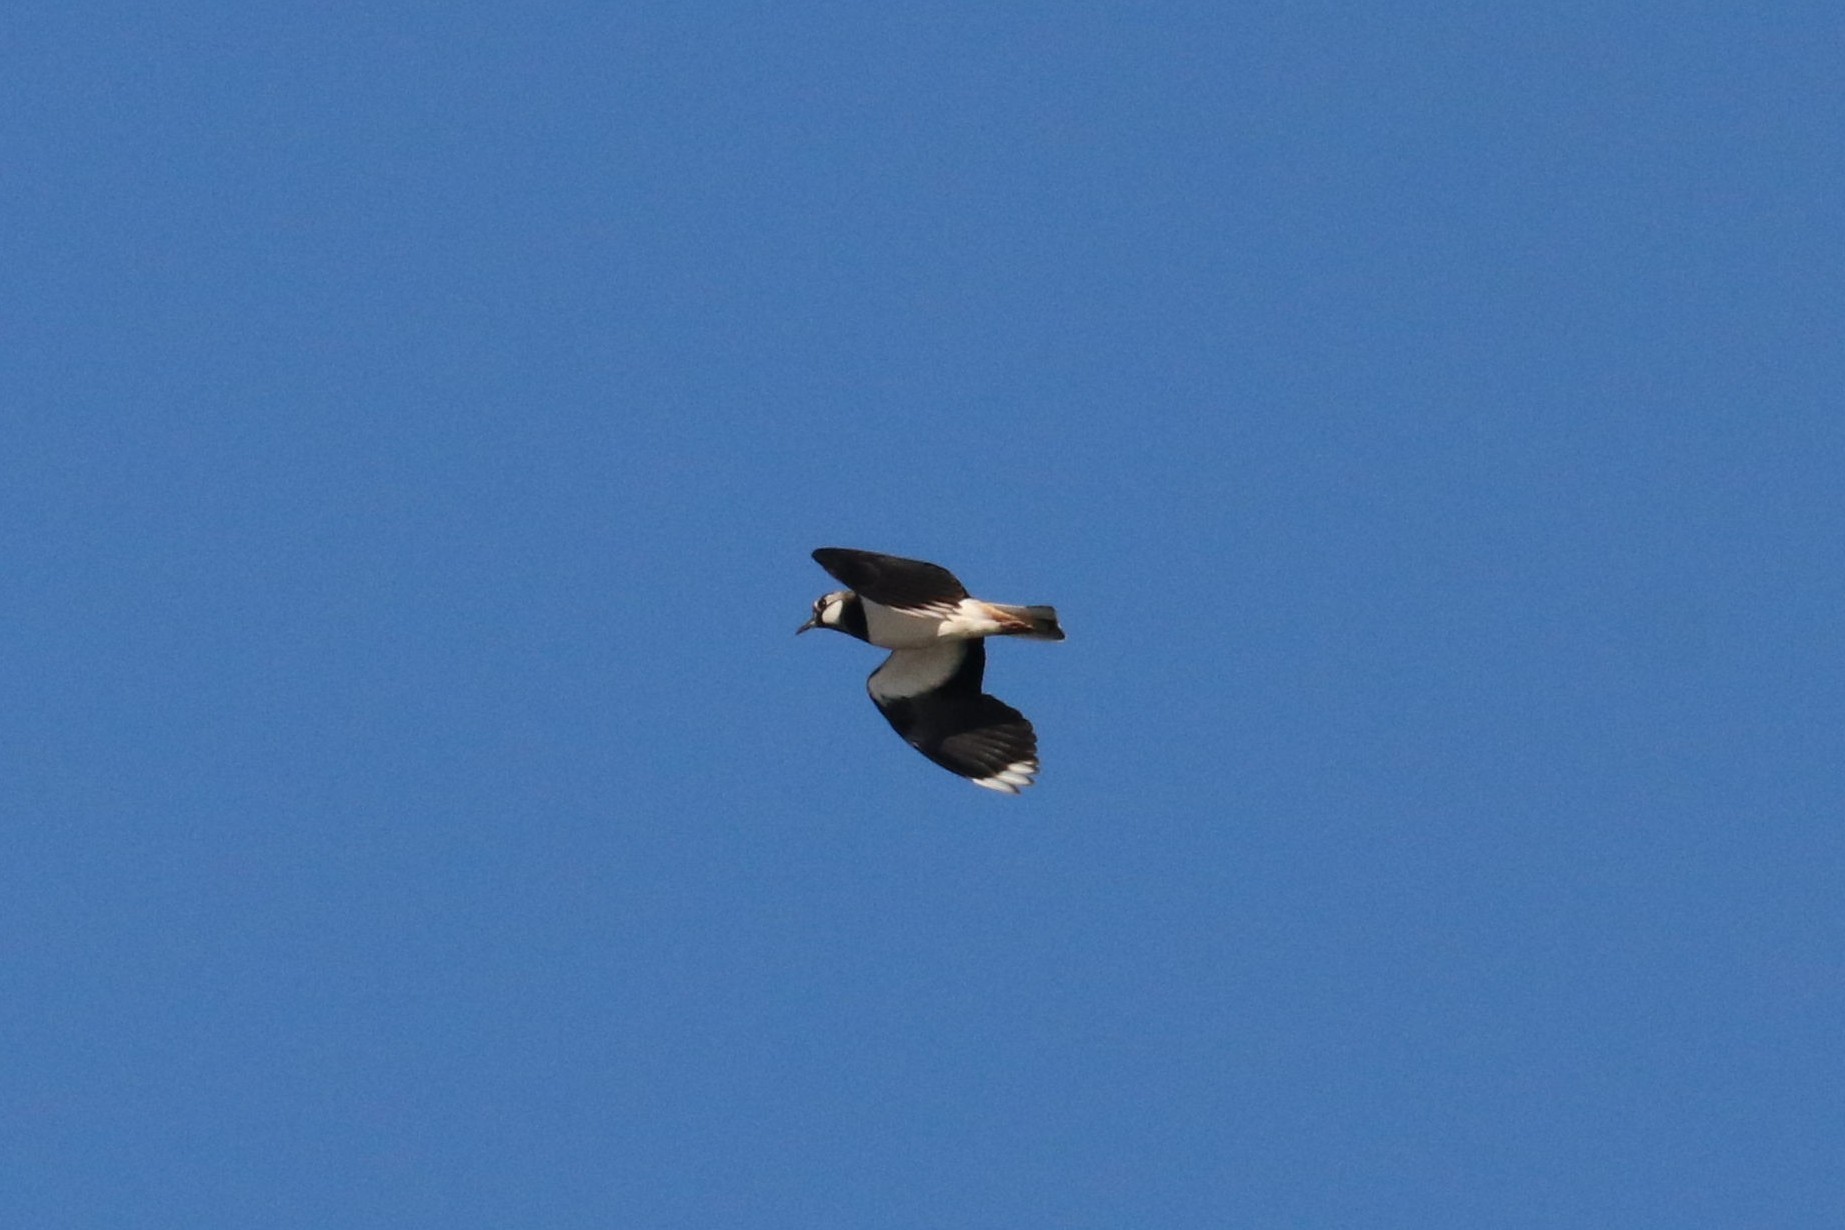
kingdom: Animalia
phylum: Chordata
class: Aves
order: Charadriiformes
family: Charadriidae
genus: Vanellus
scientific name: Vanellus vanellus
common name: Northern lapwing
